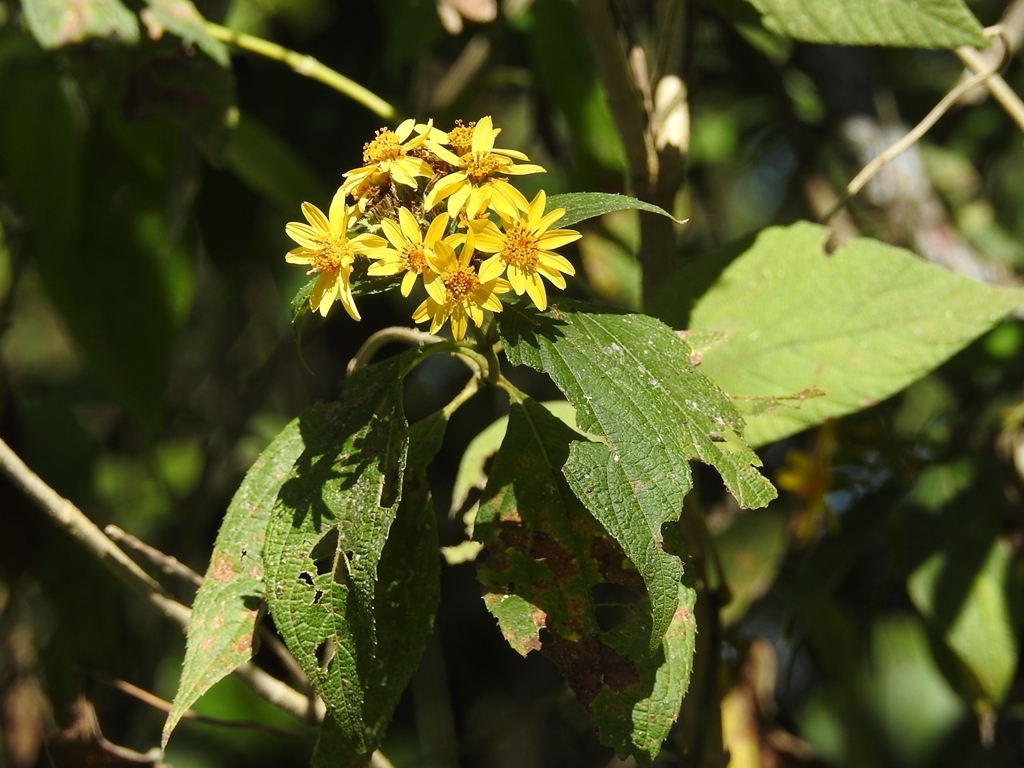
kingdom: Plantae
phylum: Tracheophyta
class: Magnoliopsida
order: Asterales
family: Asteraceae
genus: Lasianthaea
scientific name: Lasianthaea fruticosa
